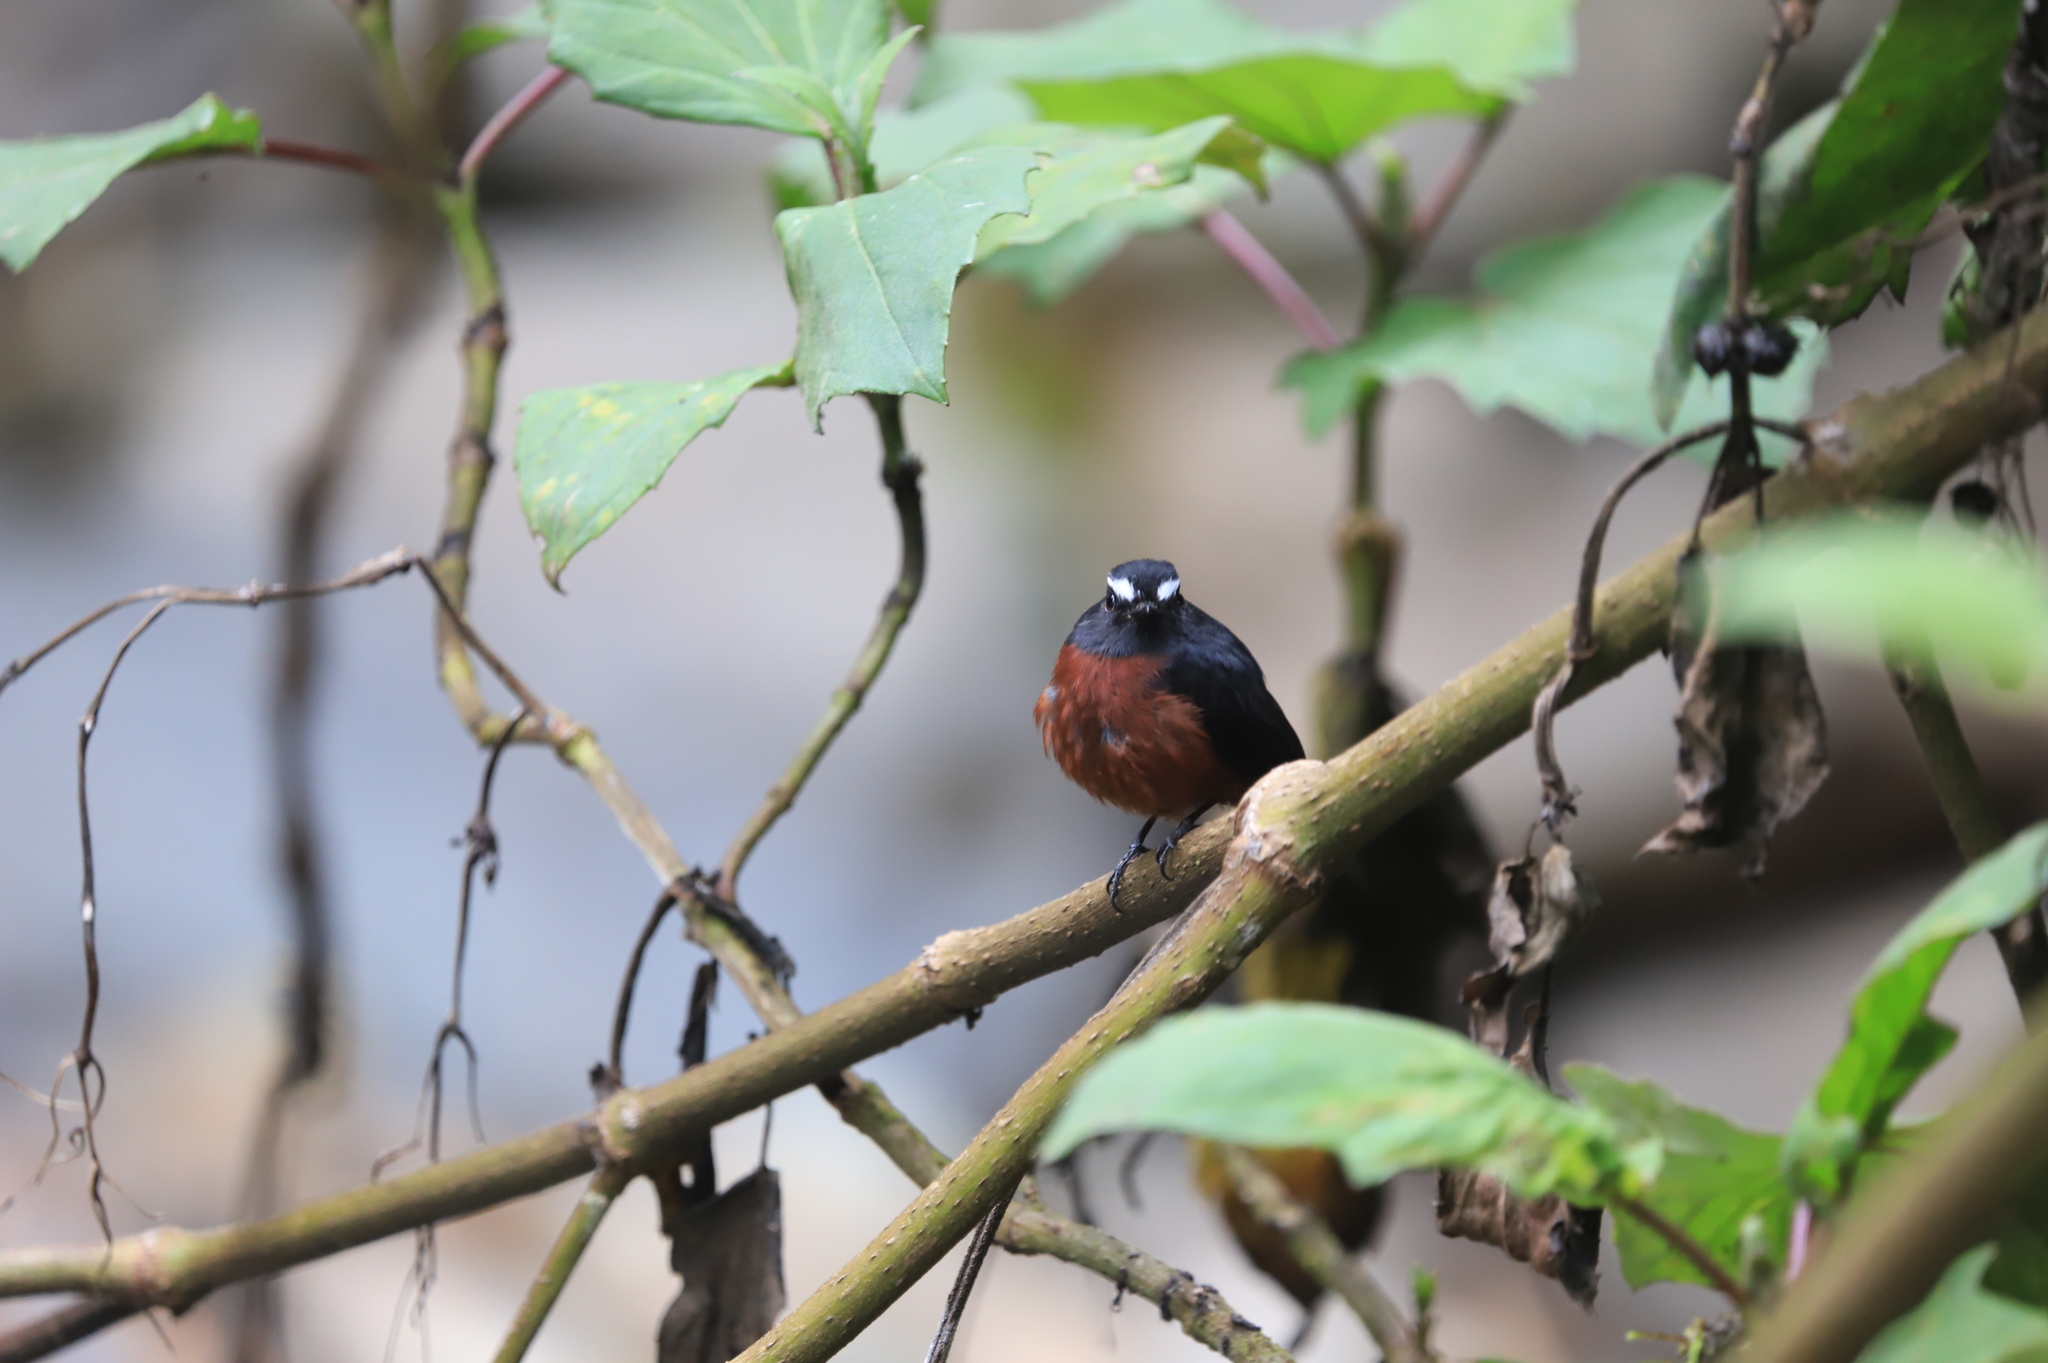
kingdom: Animalia
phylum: Chordata
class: Aves
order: Passeriformes
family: Tyrannidae
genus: Ochthoeca
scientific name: Ochthoeca cinnamomeiventris
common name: Slaty-backed chat-tyrant
